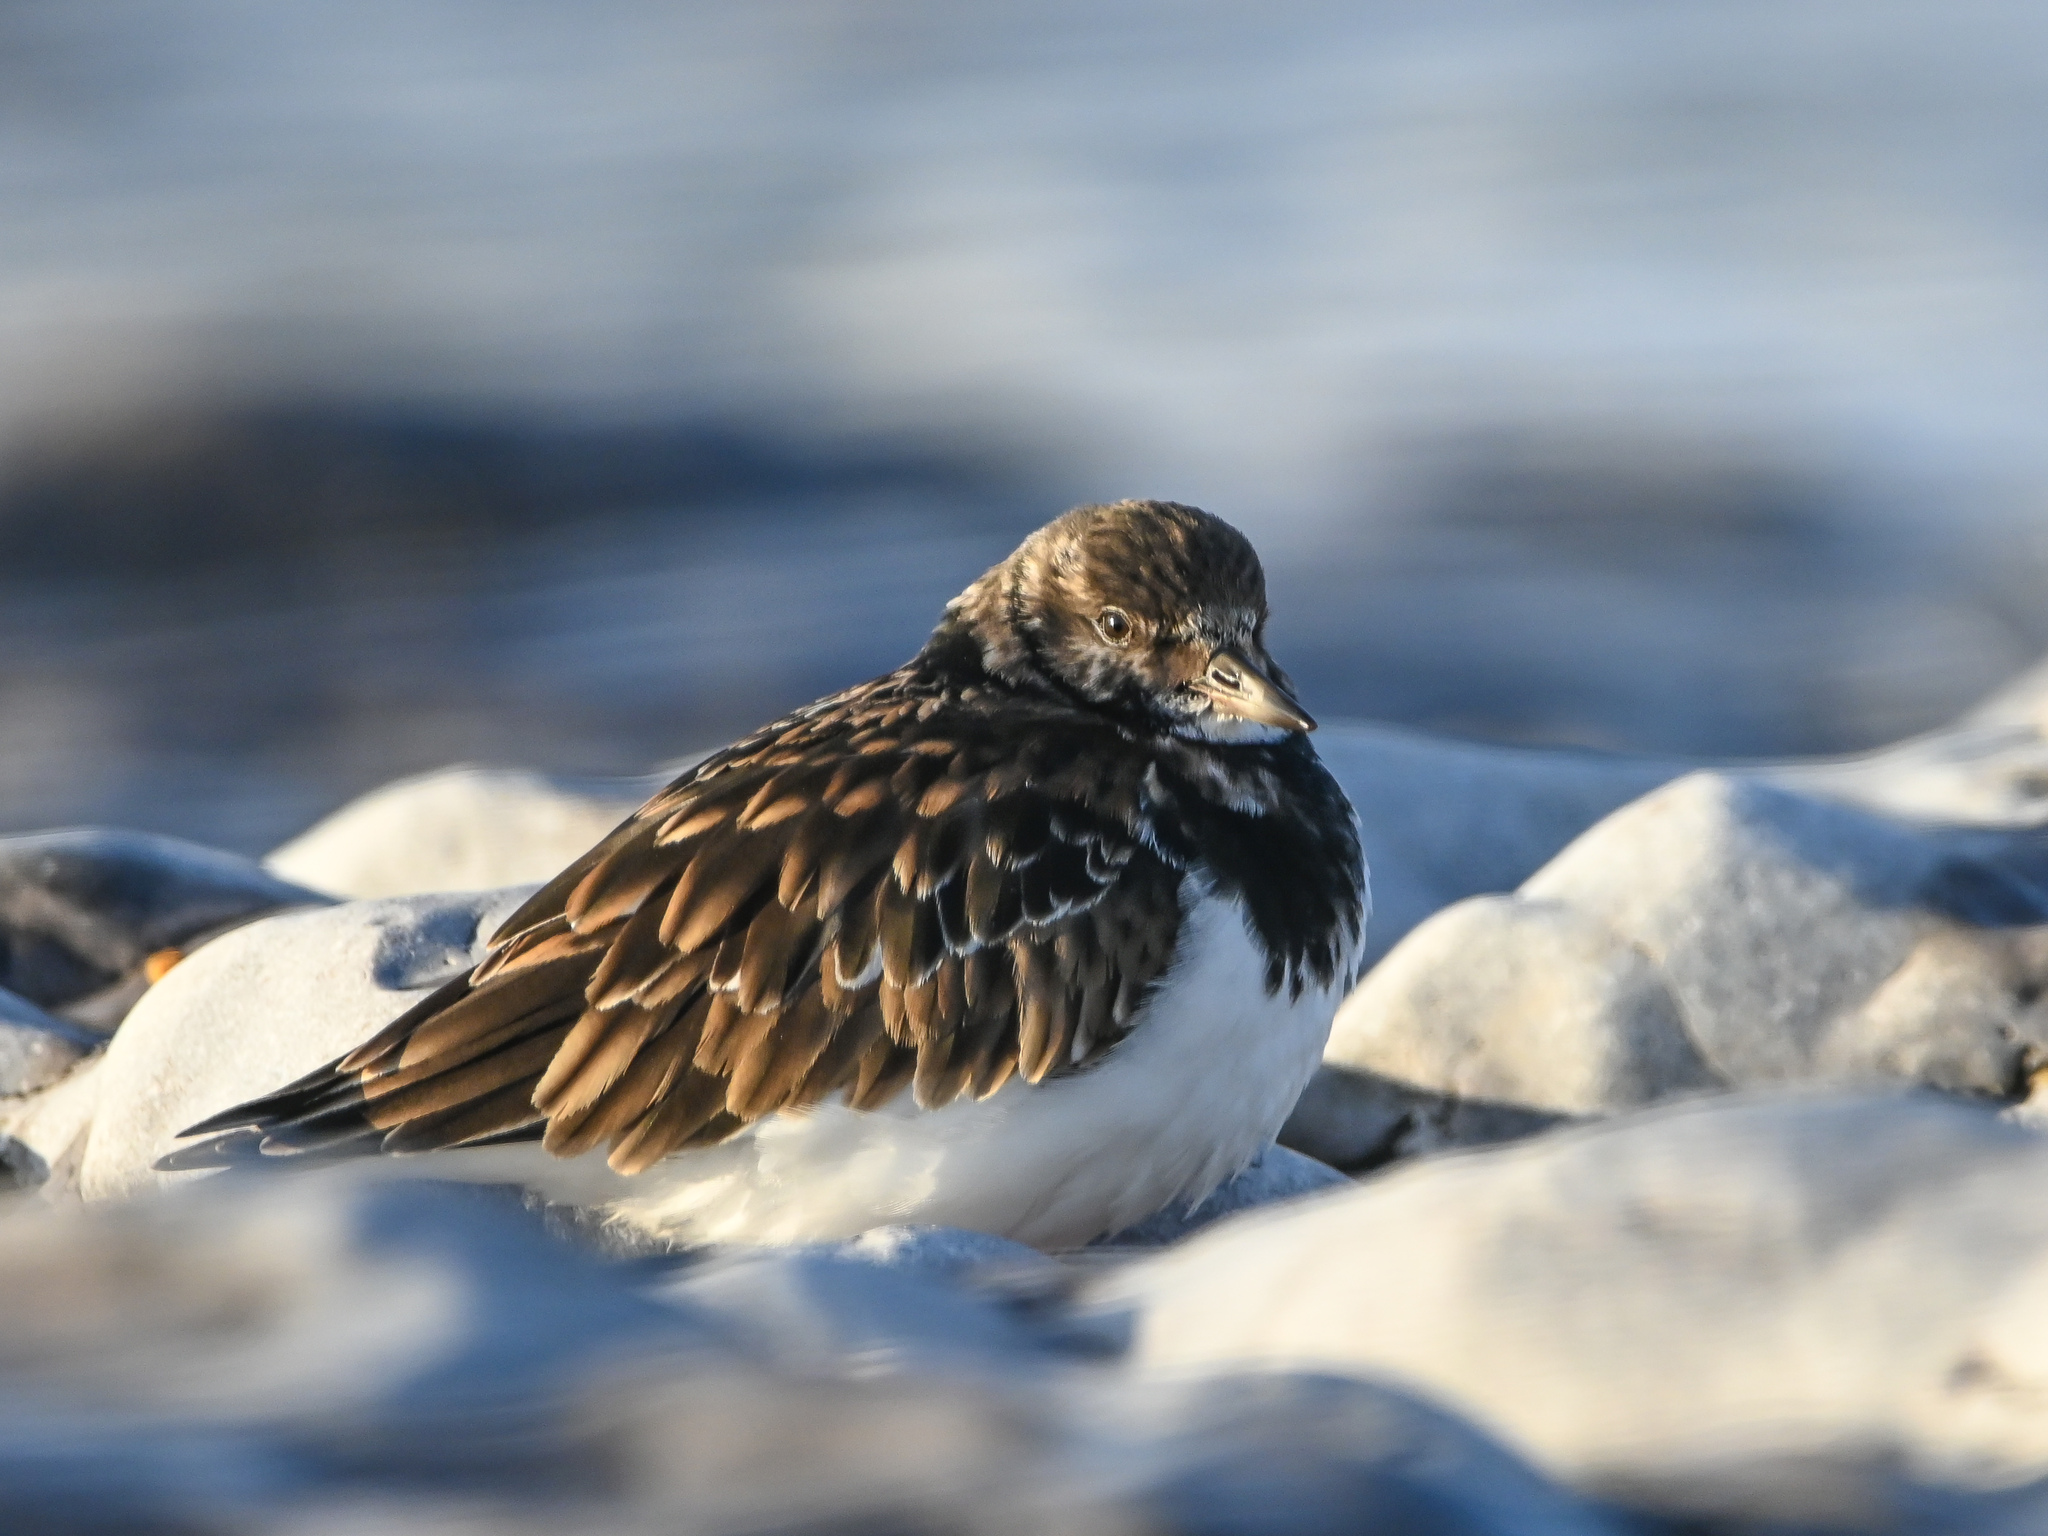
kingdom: Animalia
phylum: Chordata
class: Aves
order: Charadriiformes
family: Scolopacidae
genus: Arenaria
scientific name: Arenaria interpres
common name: Ruddy turnstone
